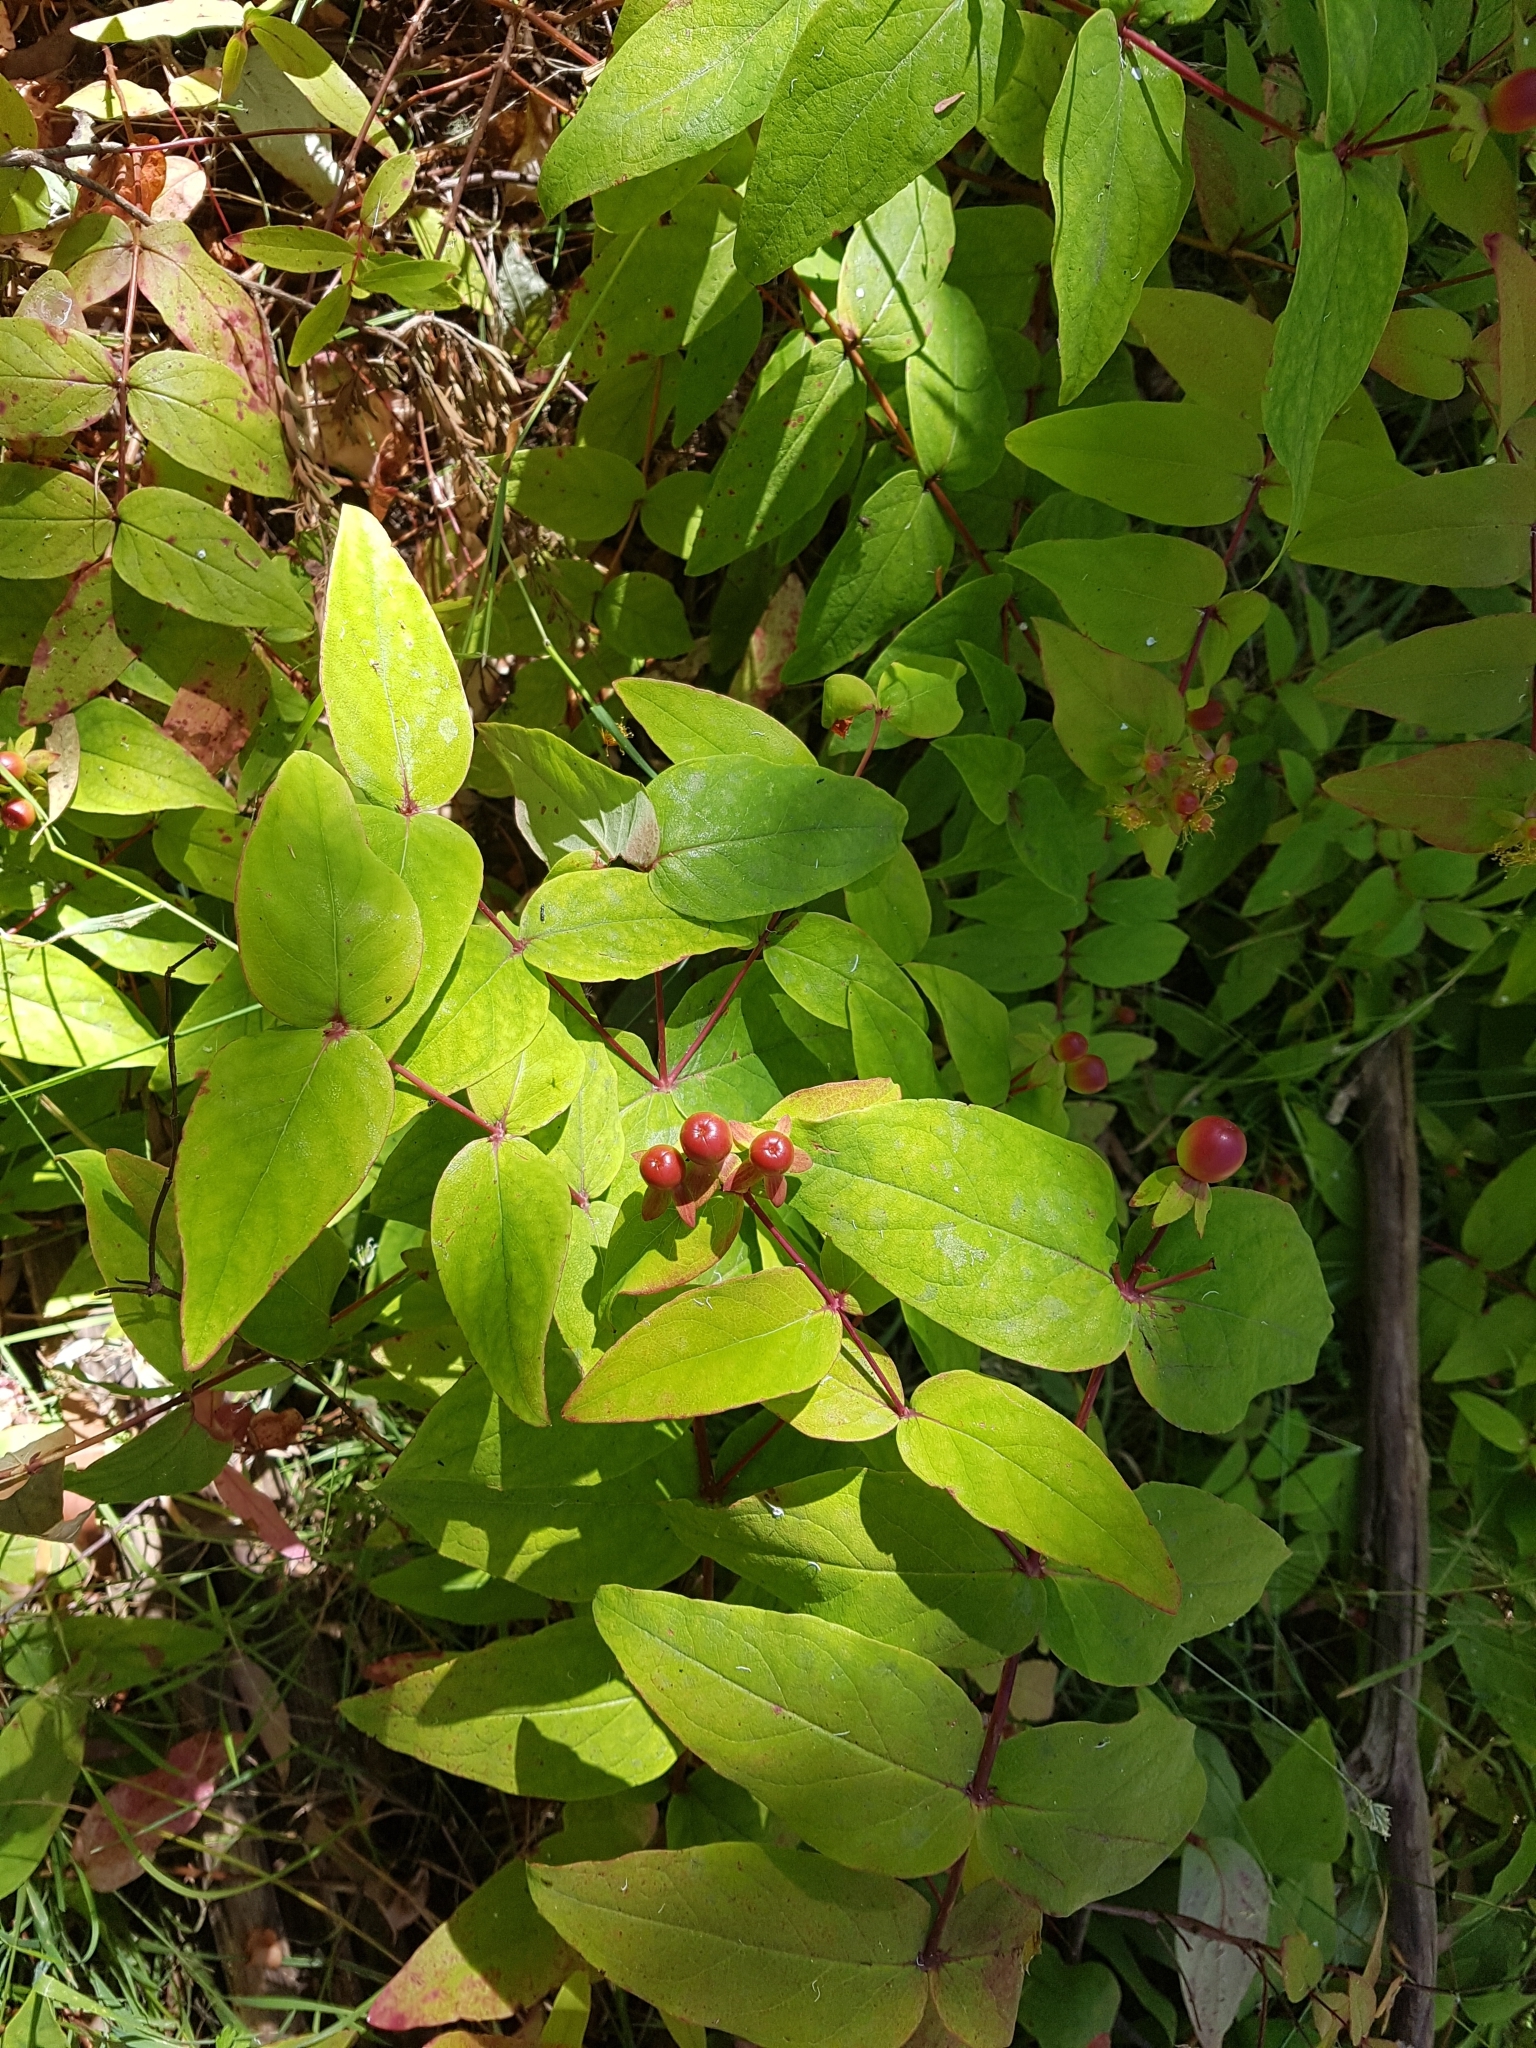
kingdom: Plantae
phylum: Tracheophyta
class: Magnoliopsida
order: Malpighiales
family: Hypericaceae
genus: Hypericum
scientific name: Hypericum androsaemum
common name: Sweet-amber
